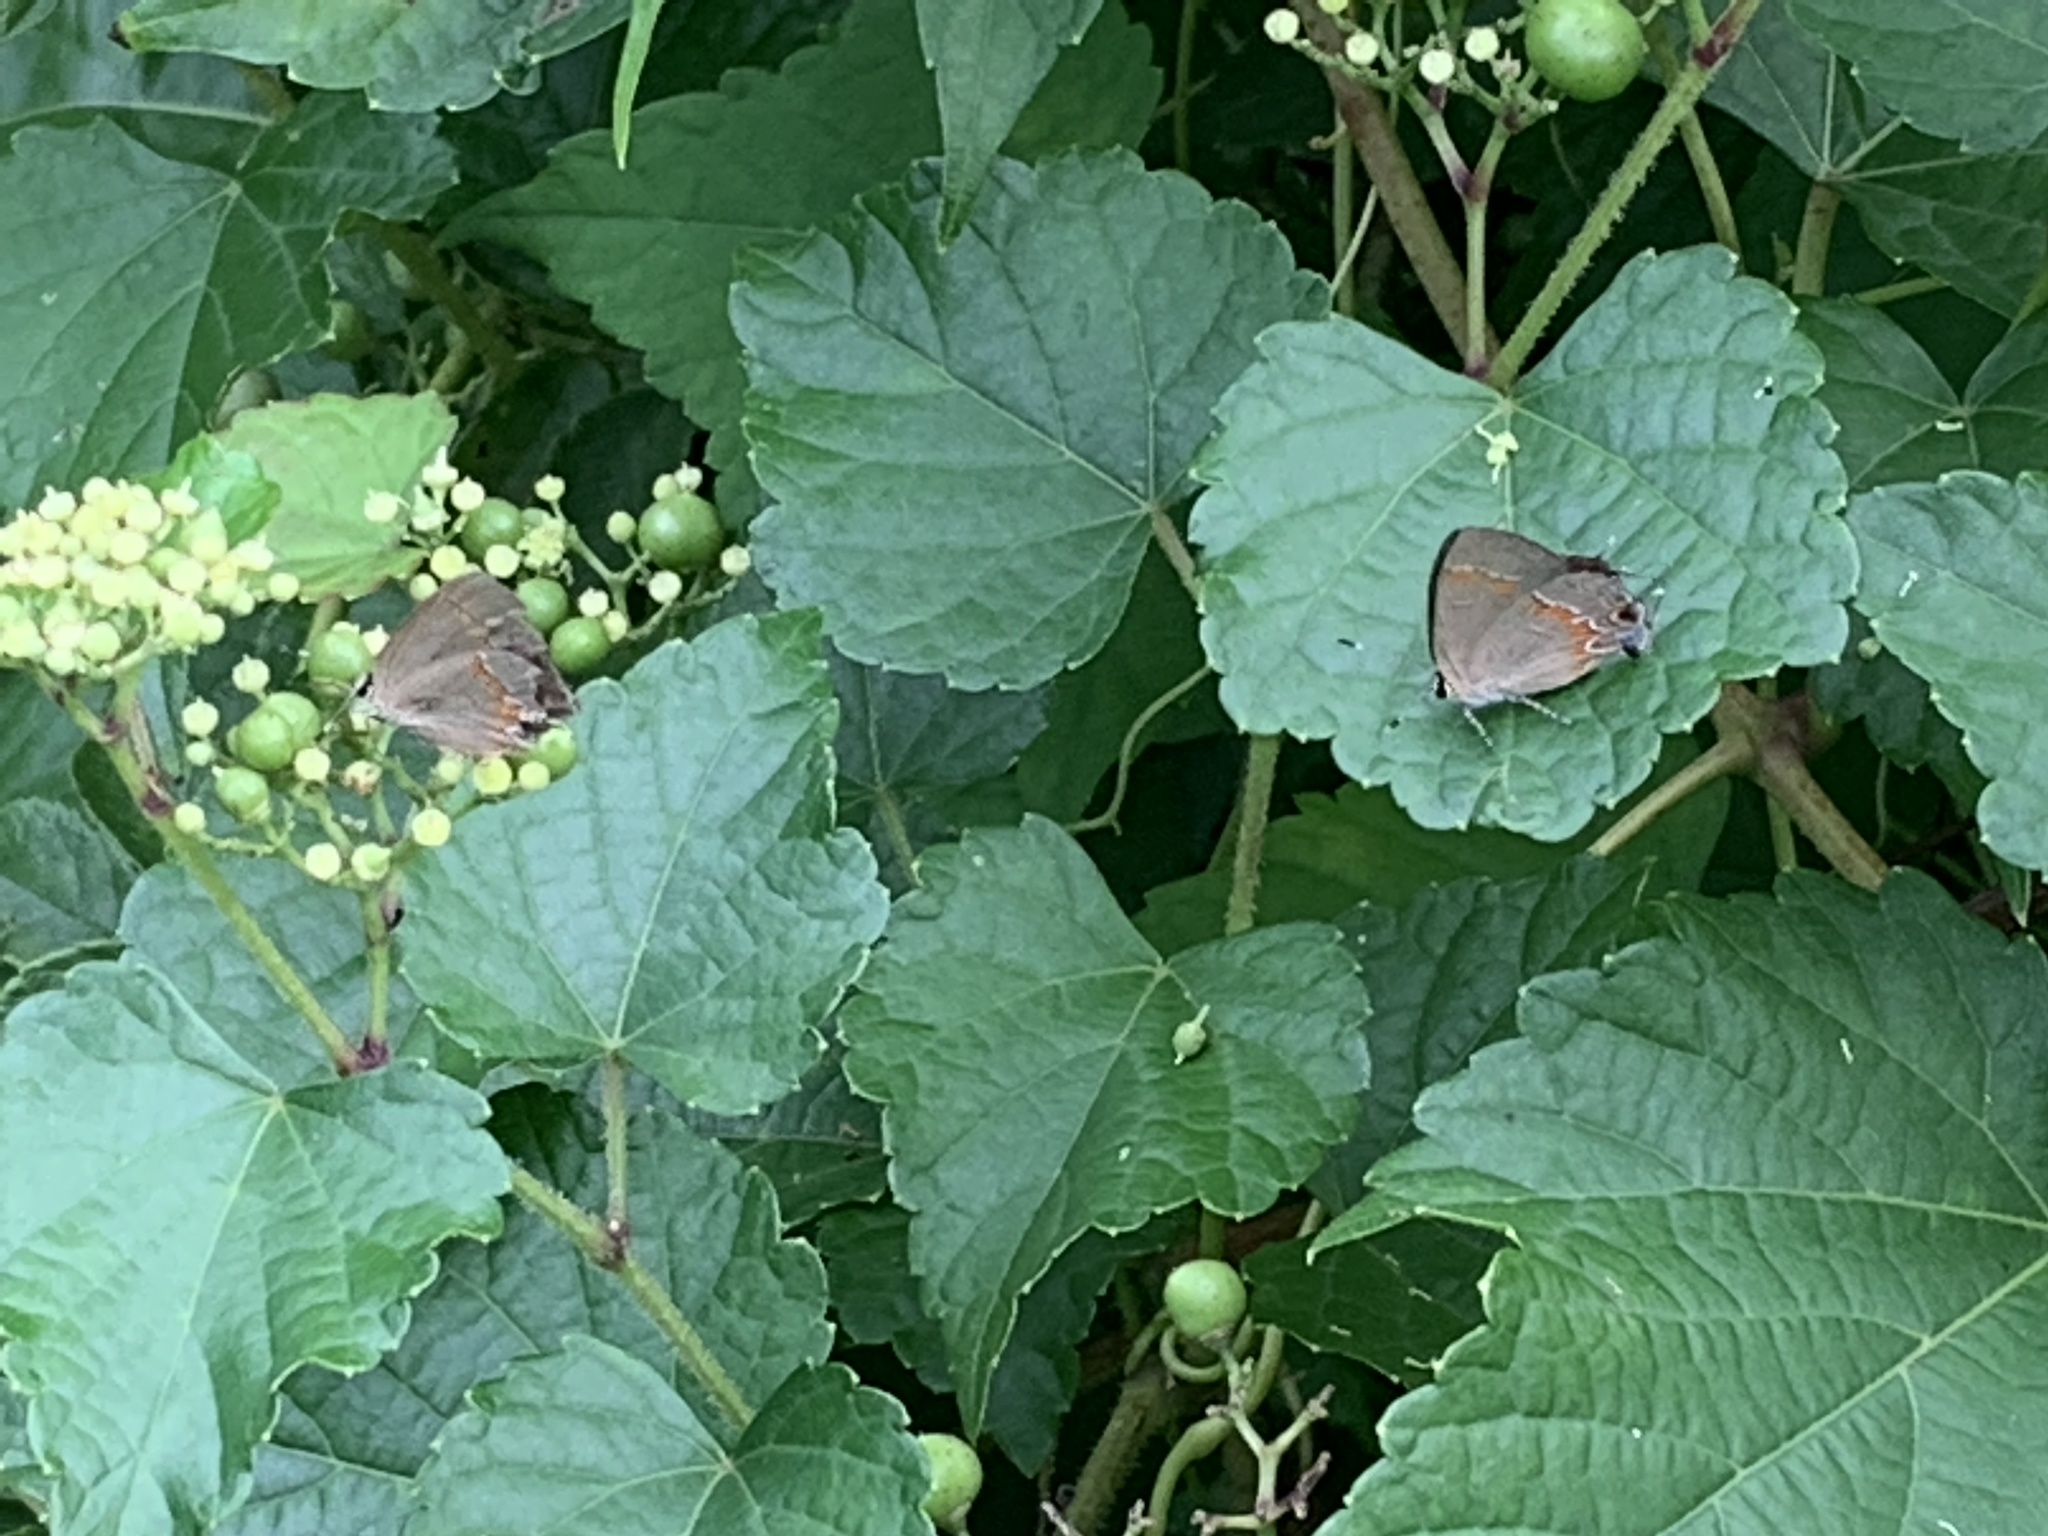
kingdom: Animalia
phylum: Arthropoda
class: Insecta
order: Lepidoptera
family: Lycaenidae
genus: Calycopis
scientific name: Calycopis cecrops
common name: Red-banded hairstreak
